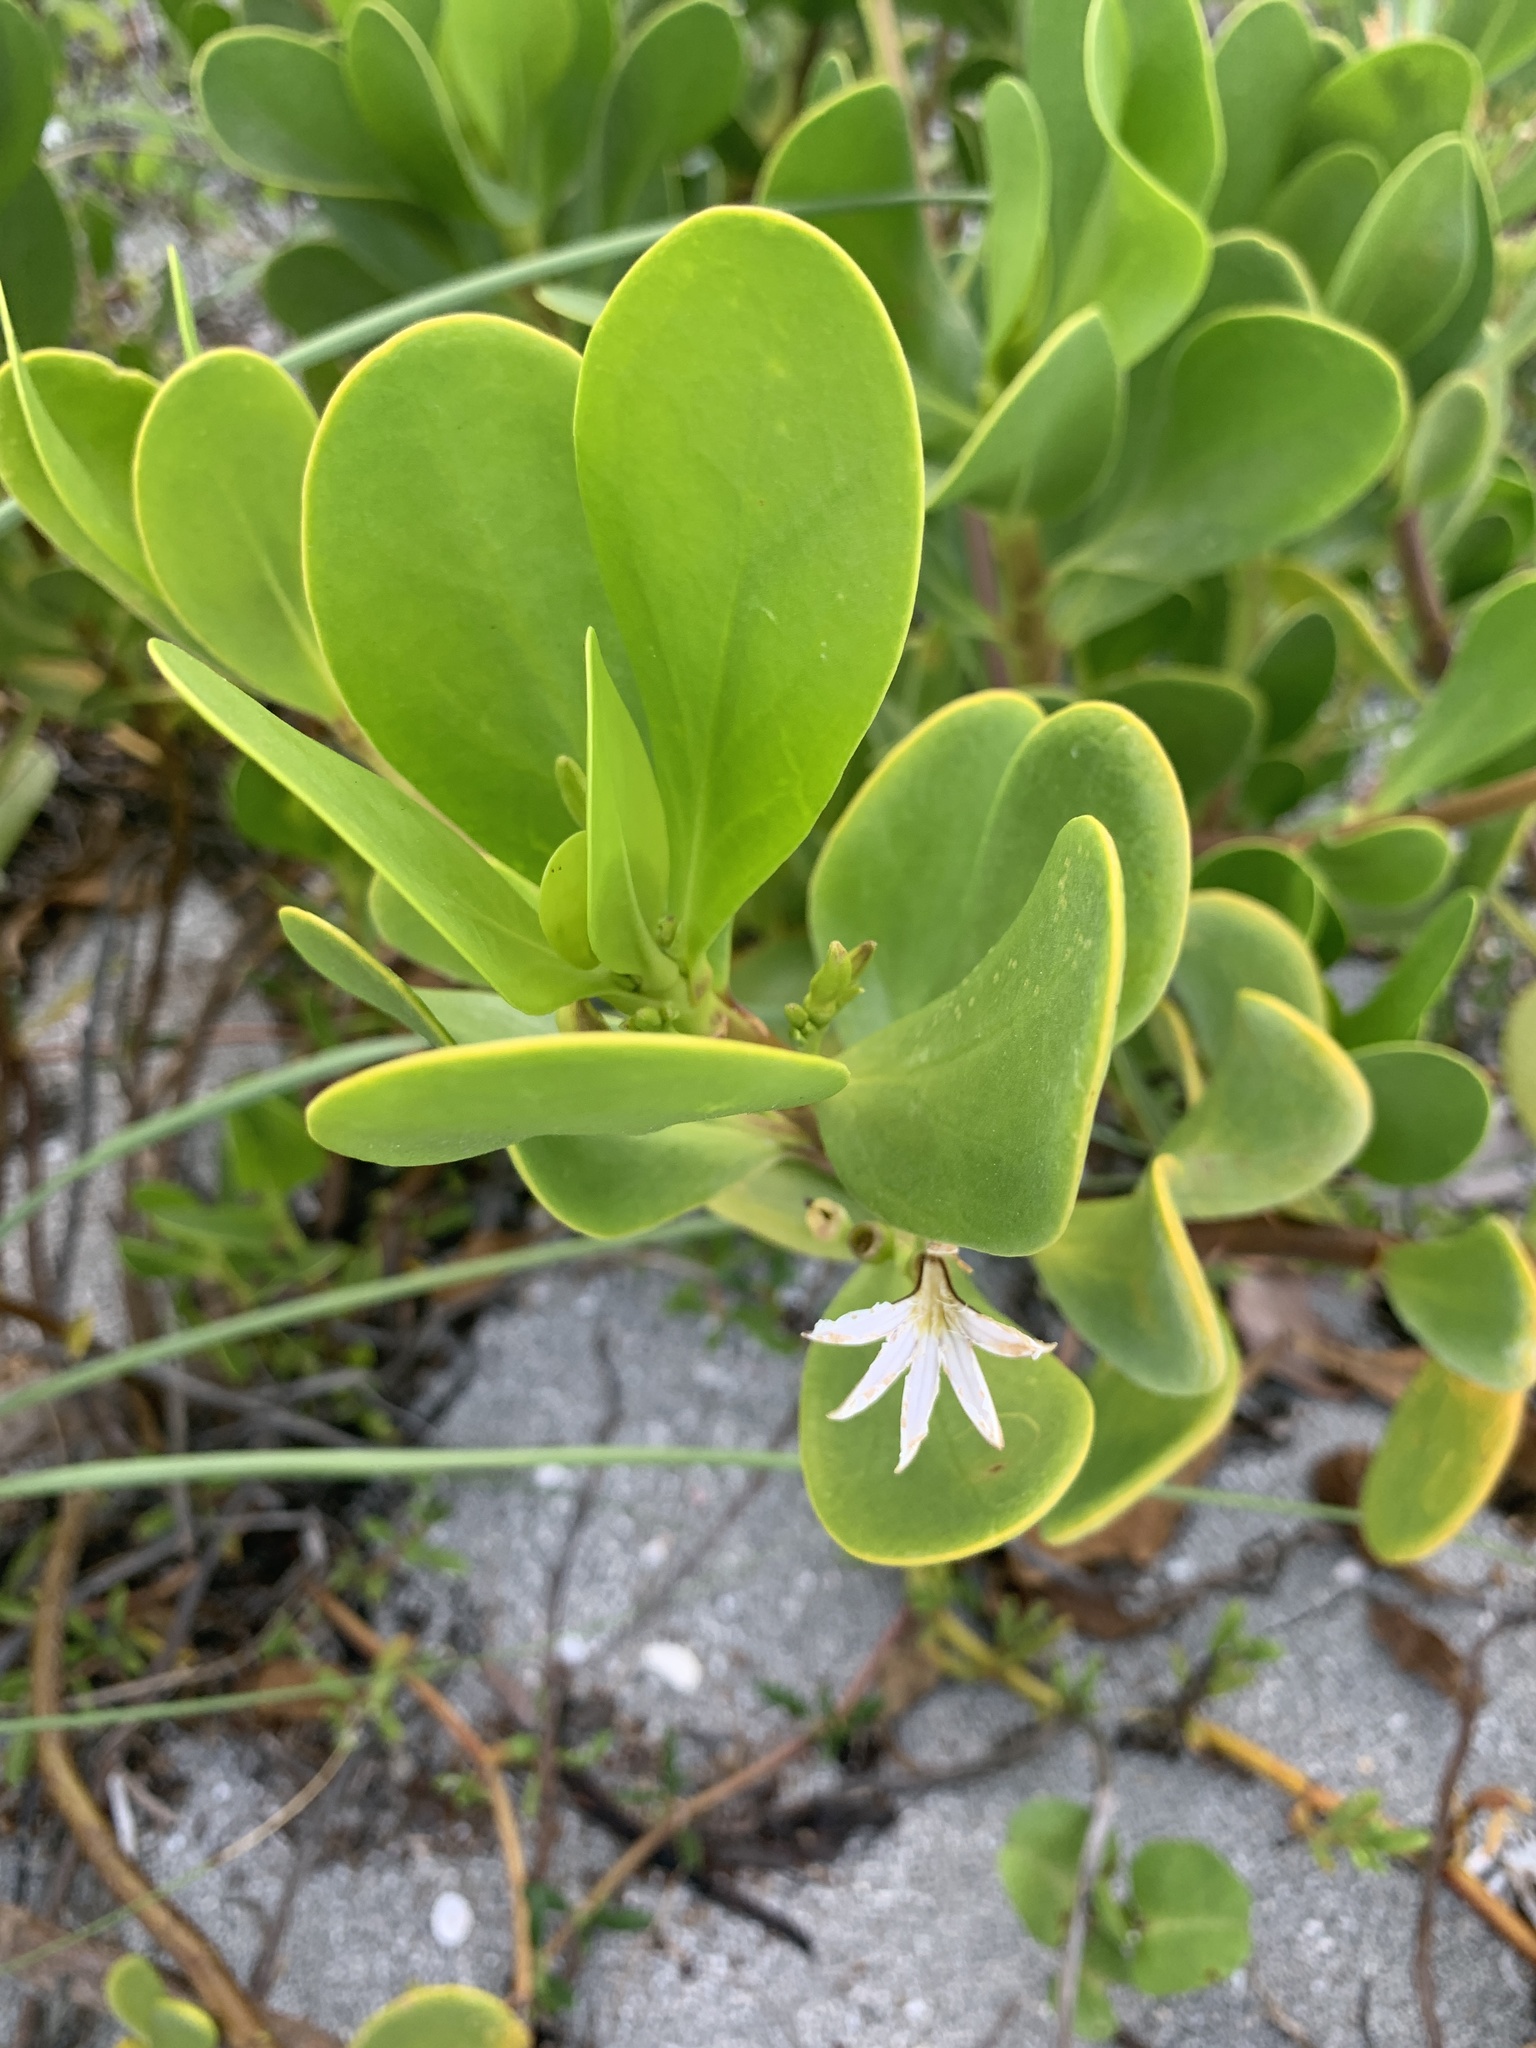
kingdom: Plantae
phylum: Tracheophyta
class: Magnoliopsida
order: Asterales
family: Goodeniaceae
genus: Scaevola
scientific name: Scaevola plumieri
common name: Gull feed
